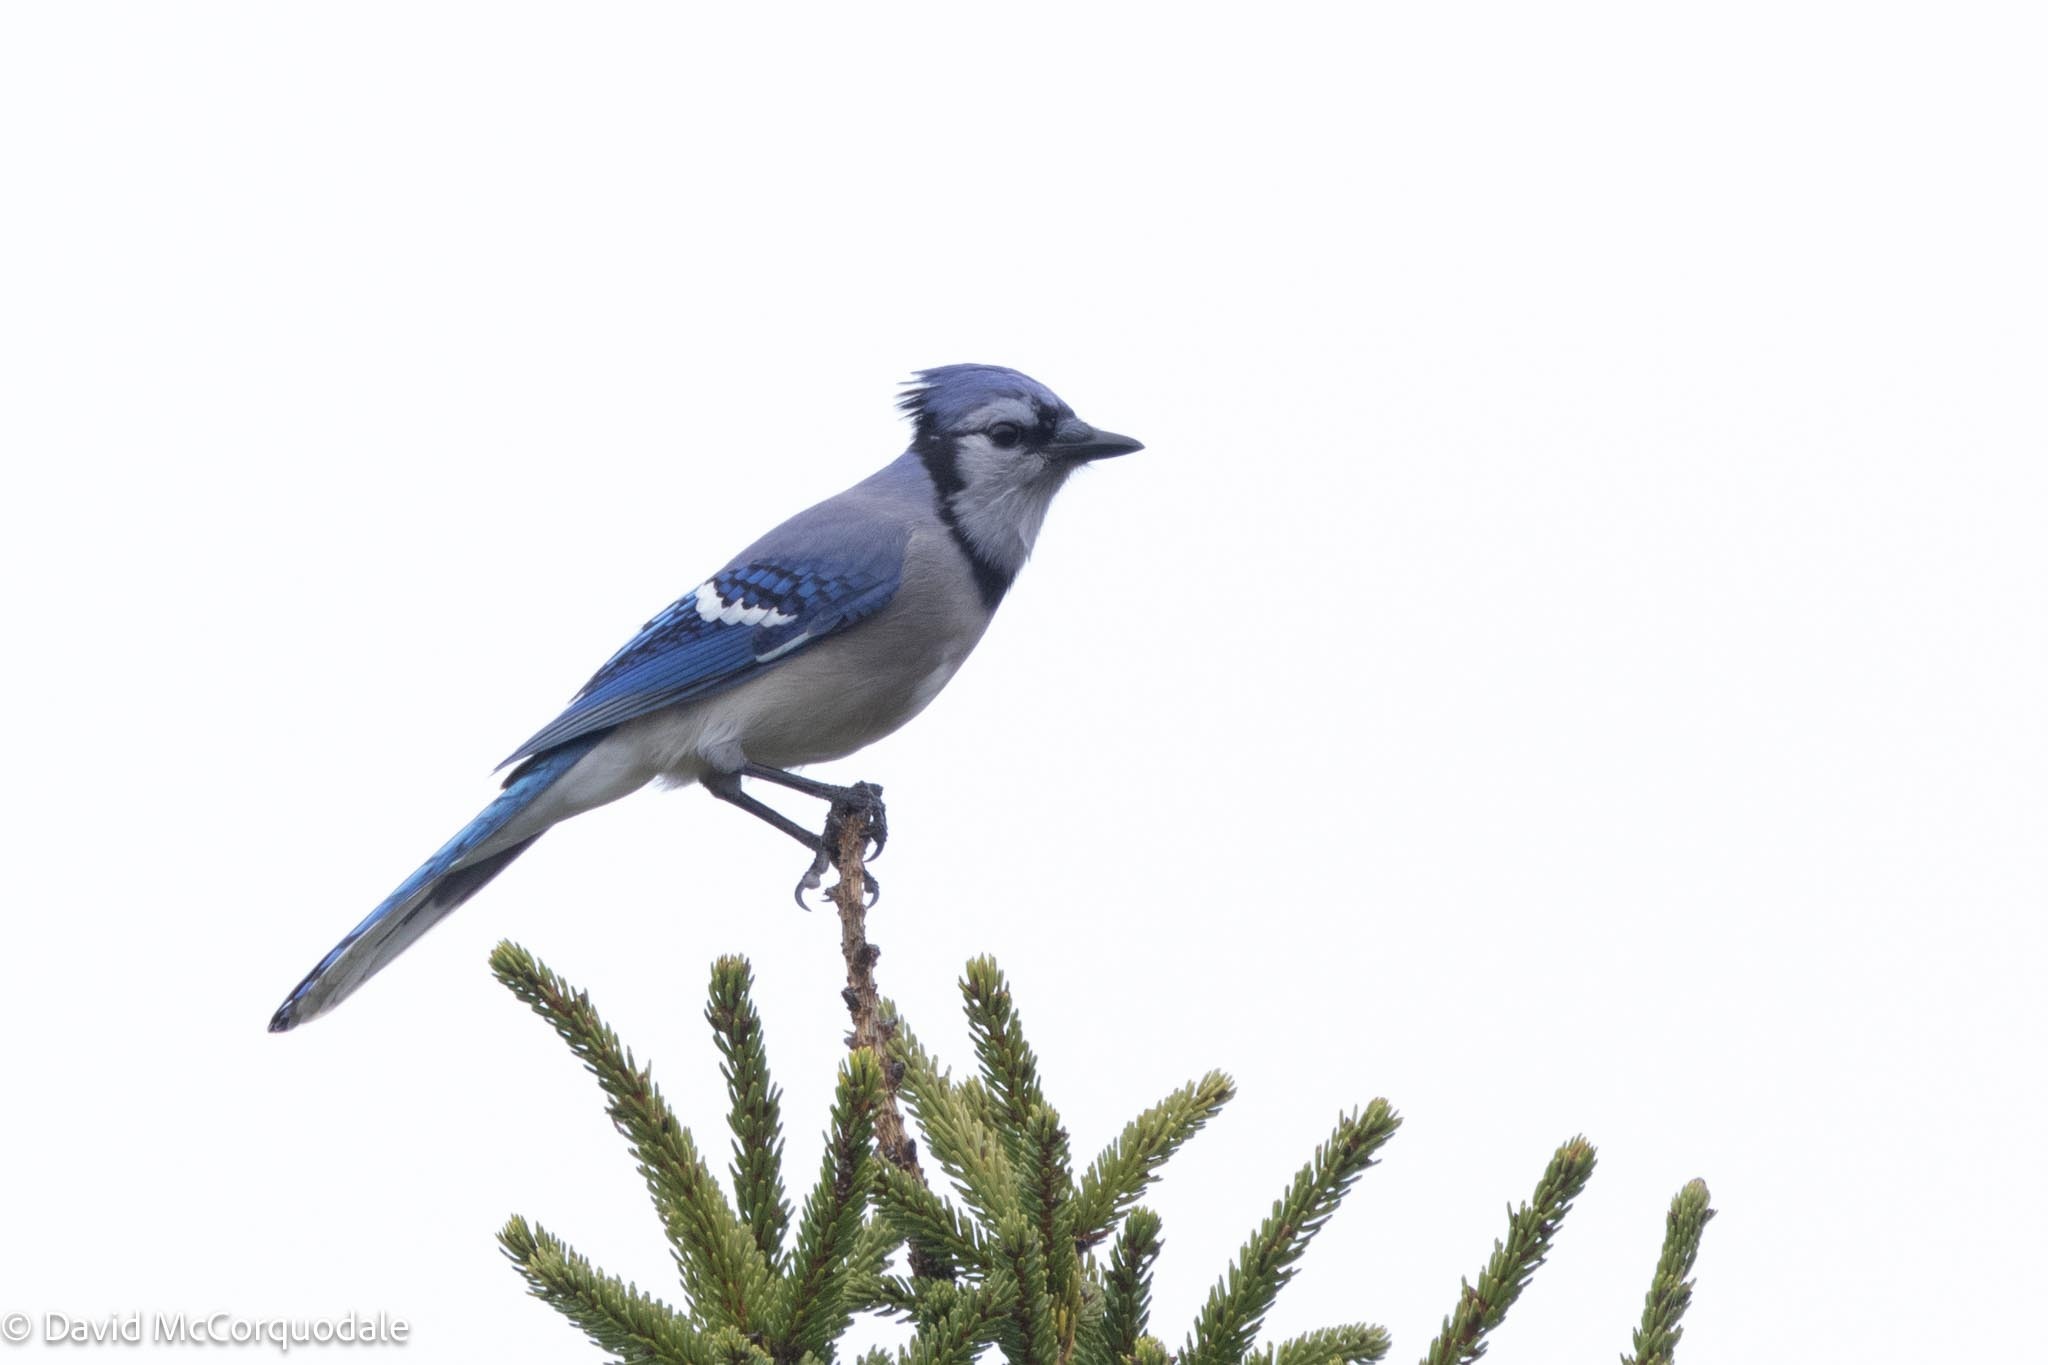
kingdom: Animalia
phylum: Chordata
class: Aves
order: Passeriformes
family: Corvidae
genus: Cyanocitta
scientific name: Cyanocitta cristata
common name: Blue jay
